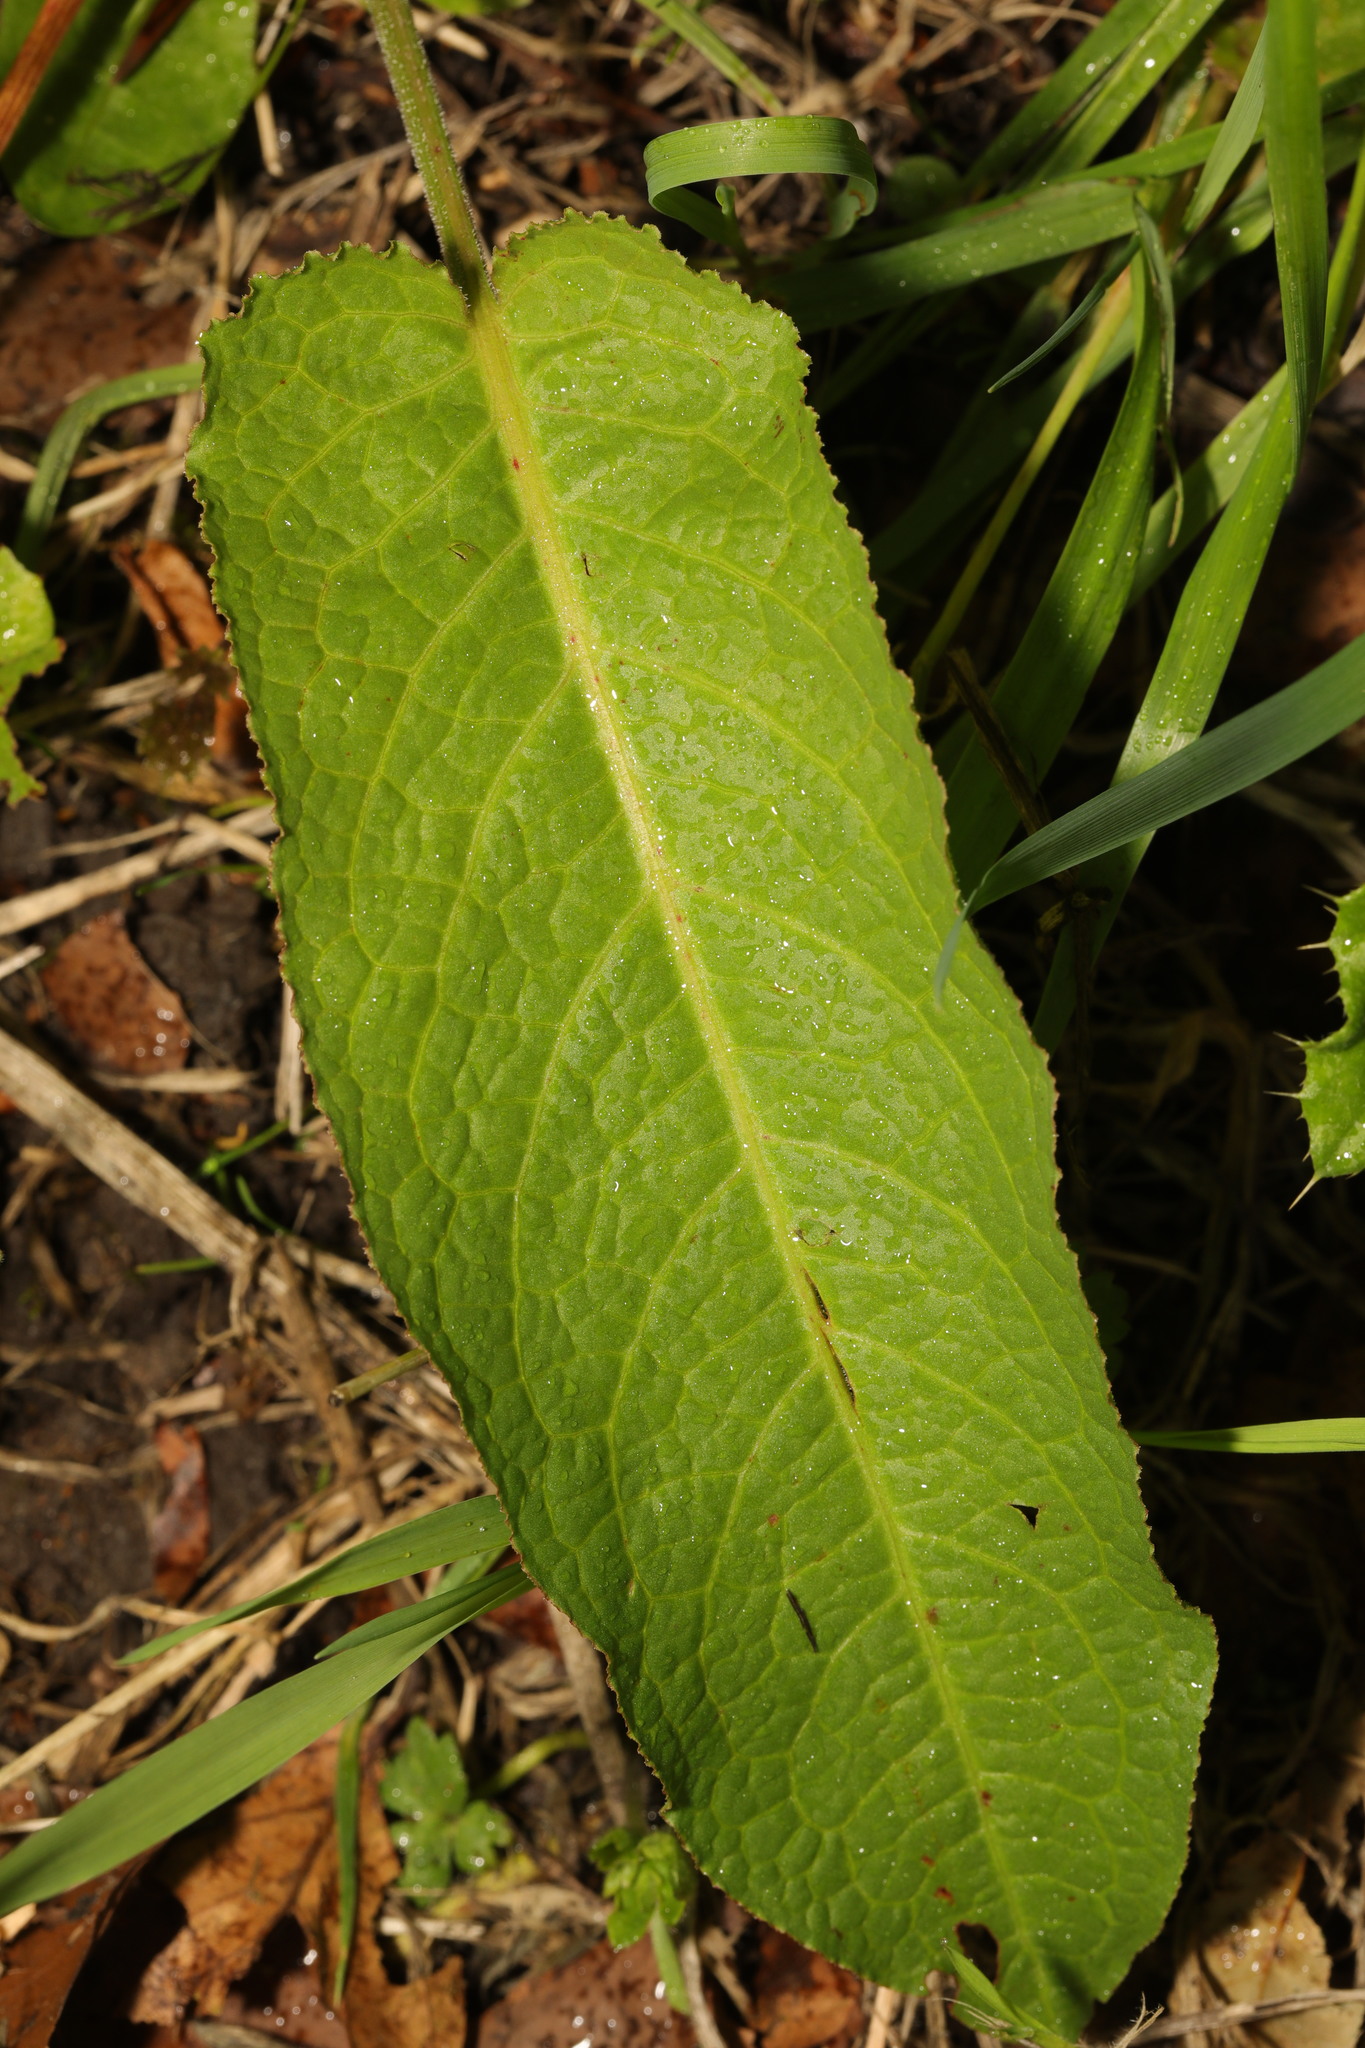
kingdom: Plantae
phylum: Tracheophyta
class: Magnoliopsida
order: Caryophyllales
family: Polygonaceae
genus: Rumex
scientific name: Rumex obtusifolius
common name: Bitter dock
